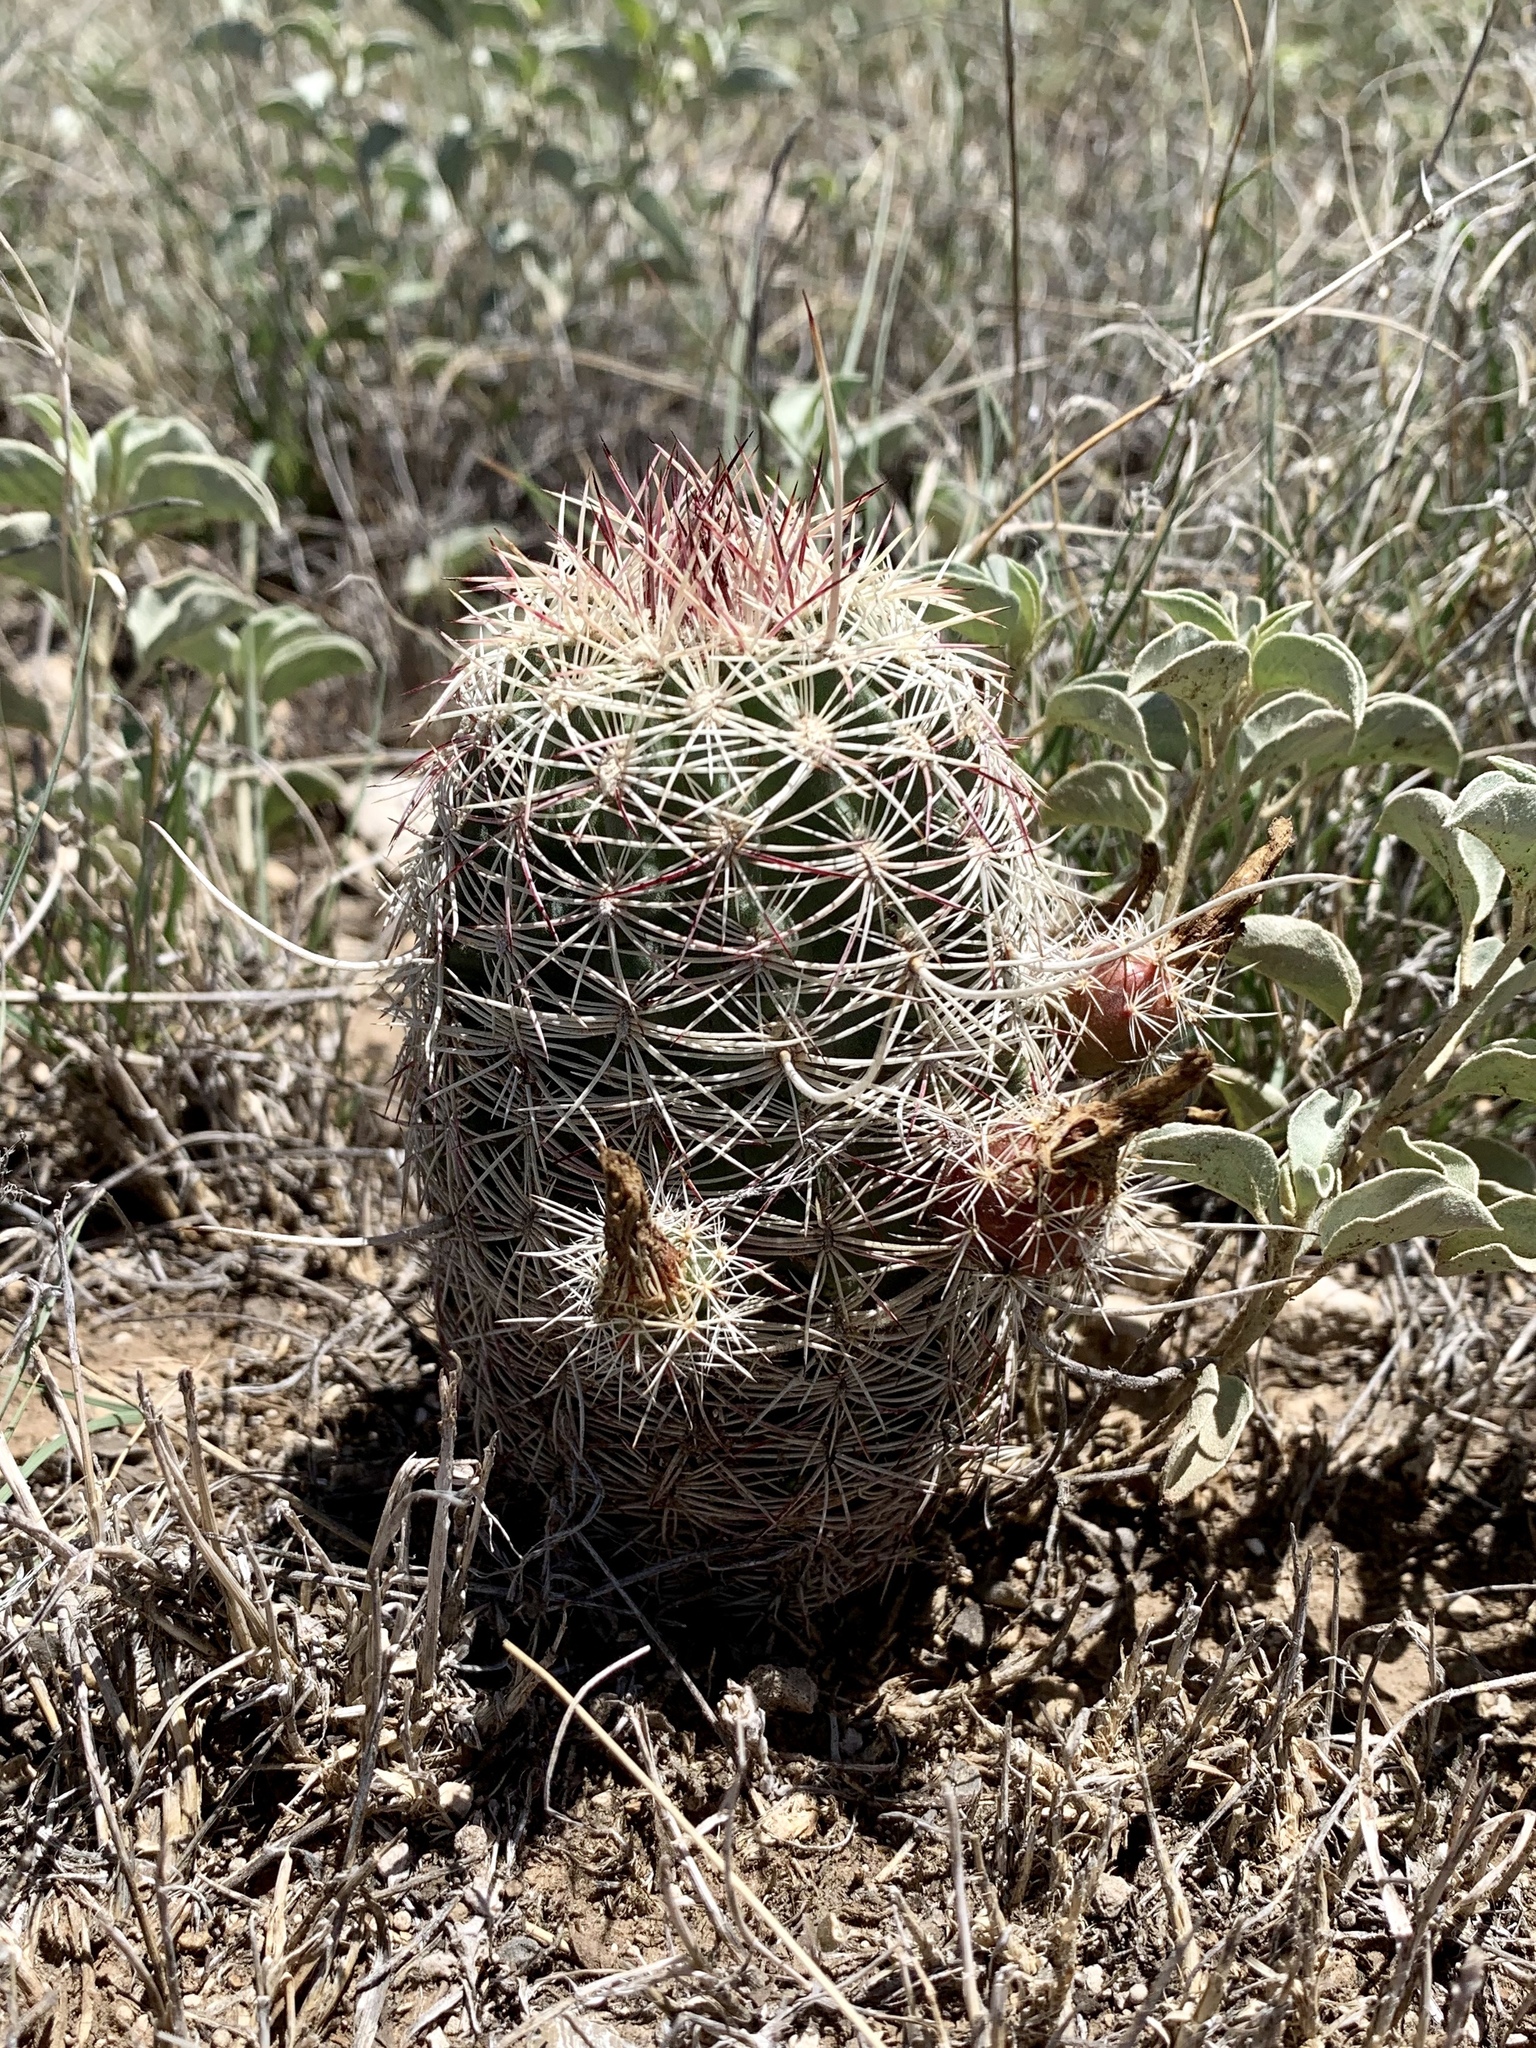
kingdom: Plantae
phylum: Tracheophyta
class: Magnoliopsida
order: Caryophyllales
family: Cactaceae
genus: Echinocereus
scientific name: Echinocereus viridiflorus
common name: Nylon hedgehog cactus
